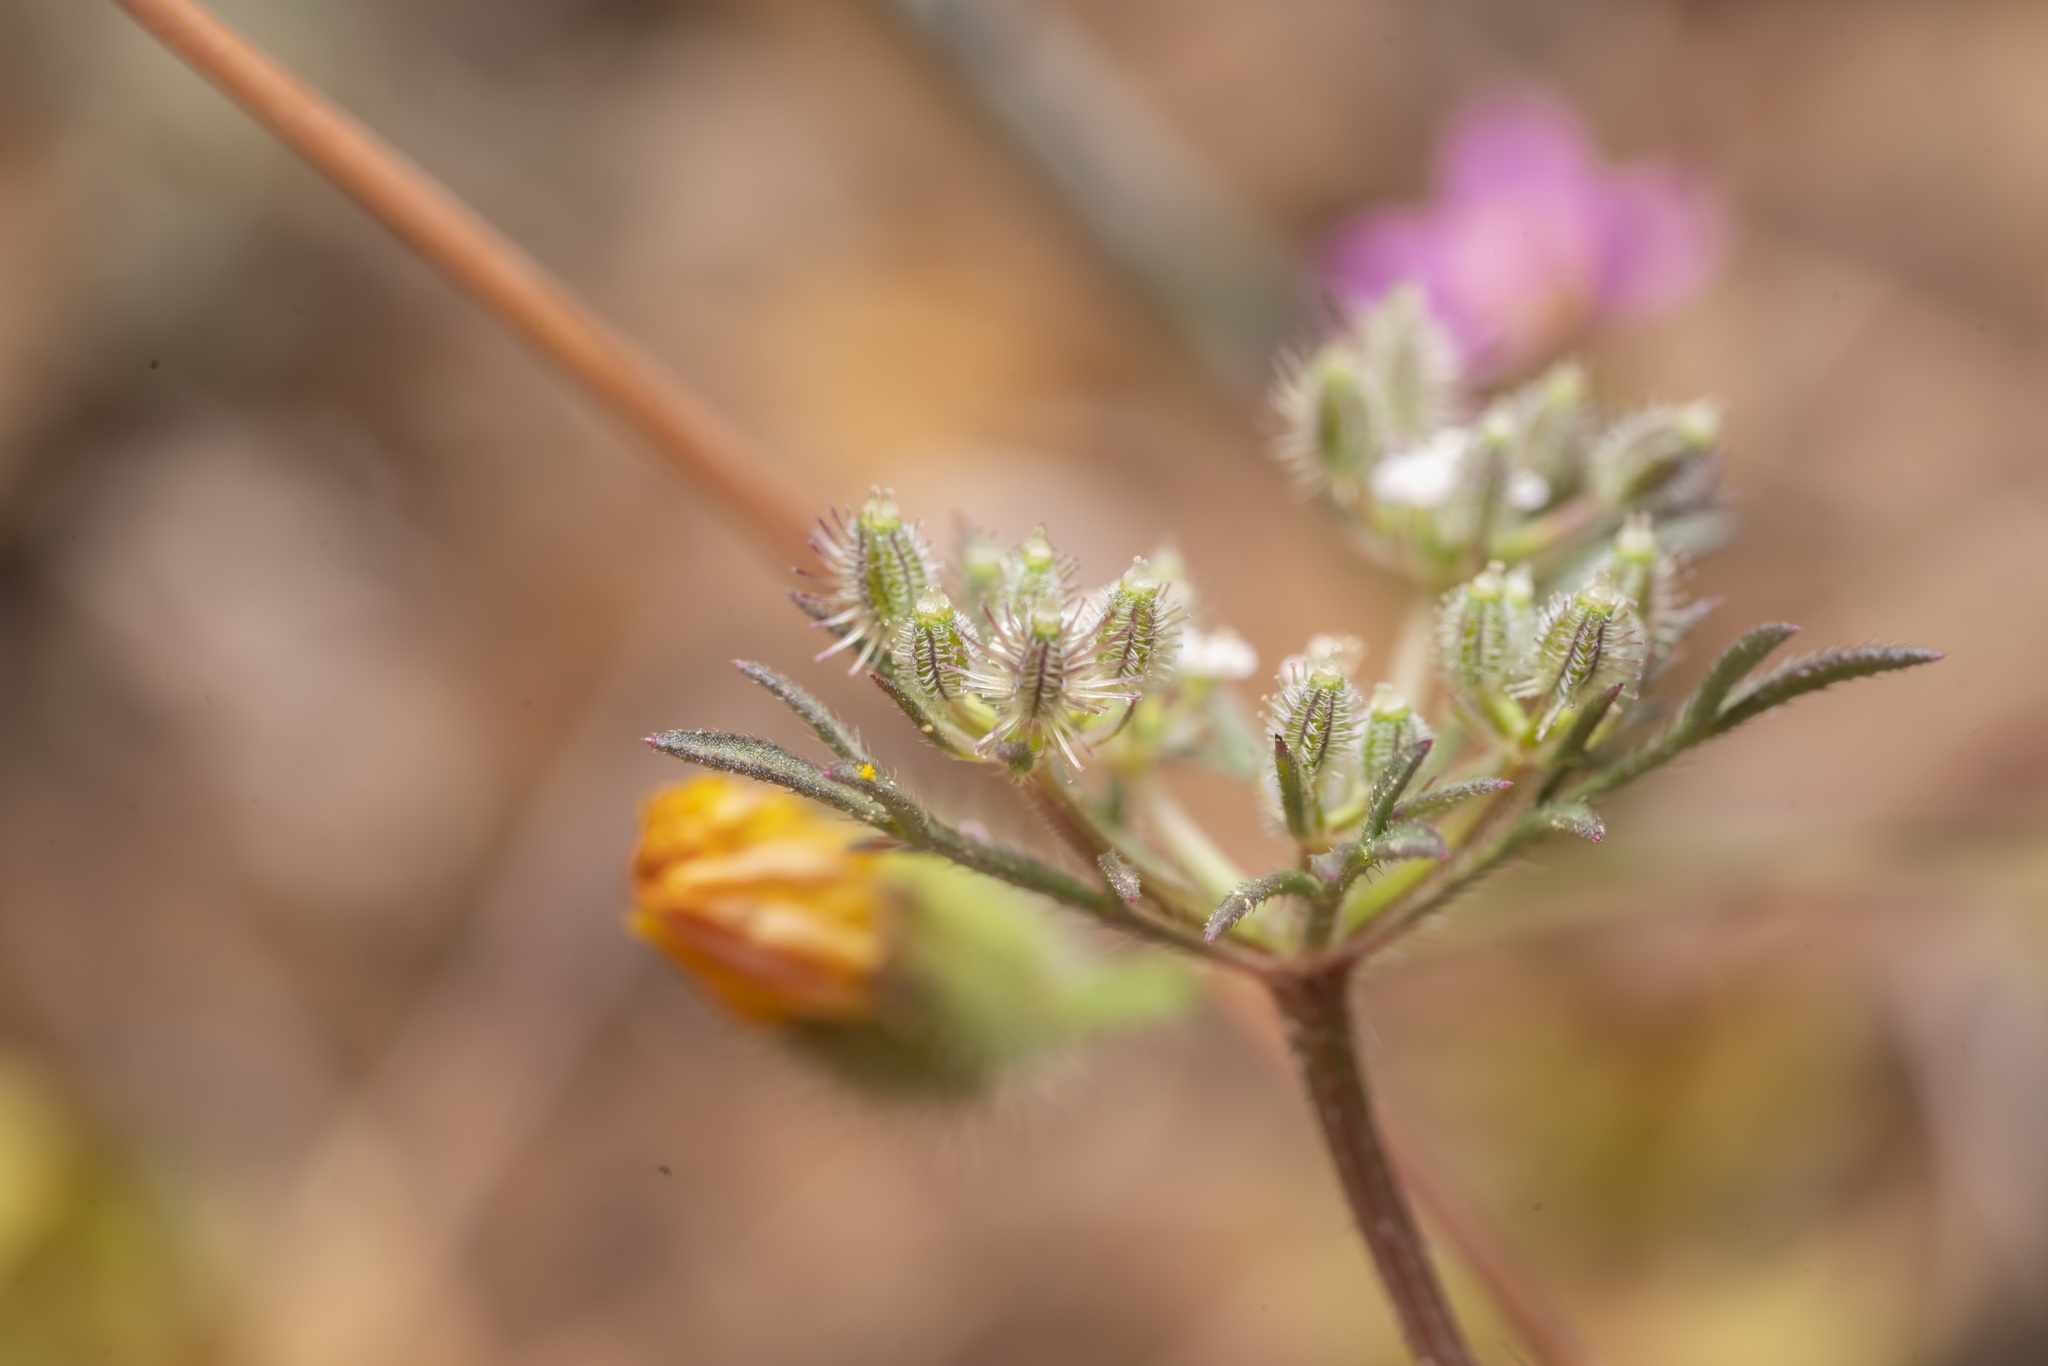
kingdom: Plantae
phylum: Tracheophyta
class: Magnoliopsida
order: Apiales
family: Apiaceae
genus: Daucus
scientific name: Daucus involucratus
